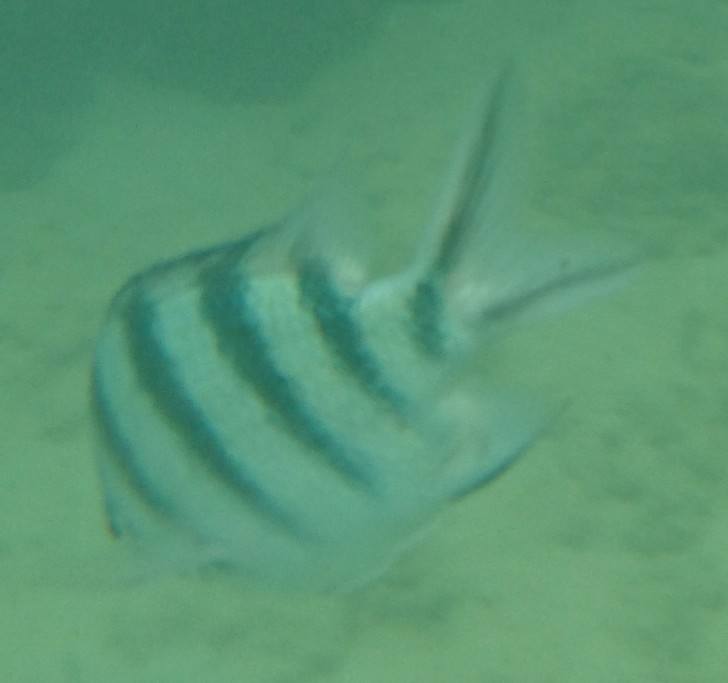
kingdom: Animalia
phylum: Chordata
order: Perciformes
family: Pomacentridae
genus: Abudefduf
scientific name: Abudefduf sexfasciatus
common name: Scissortail sergeant
